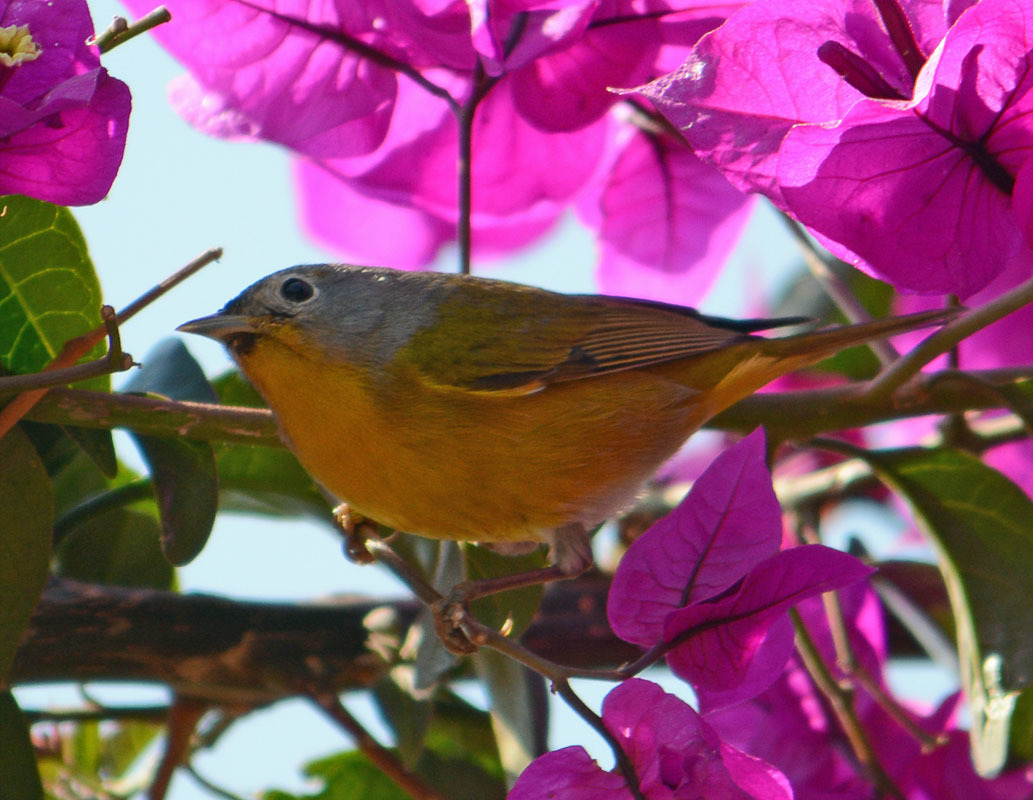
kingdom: Animalia
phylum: Chordata
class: Aves
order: Passeriformes
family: Parulidae
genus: Leiothlypis
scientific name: Leiothlypis ruficapilla
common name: Nashville warbler
